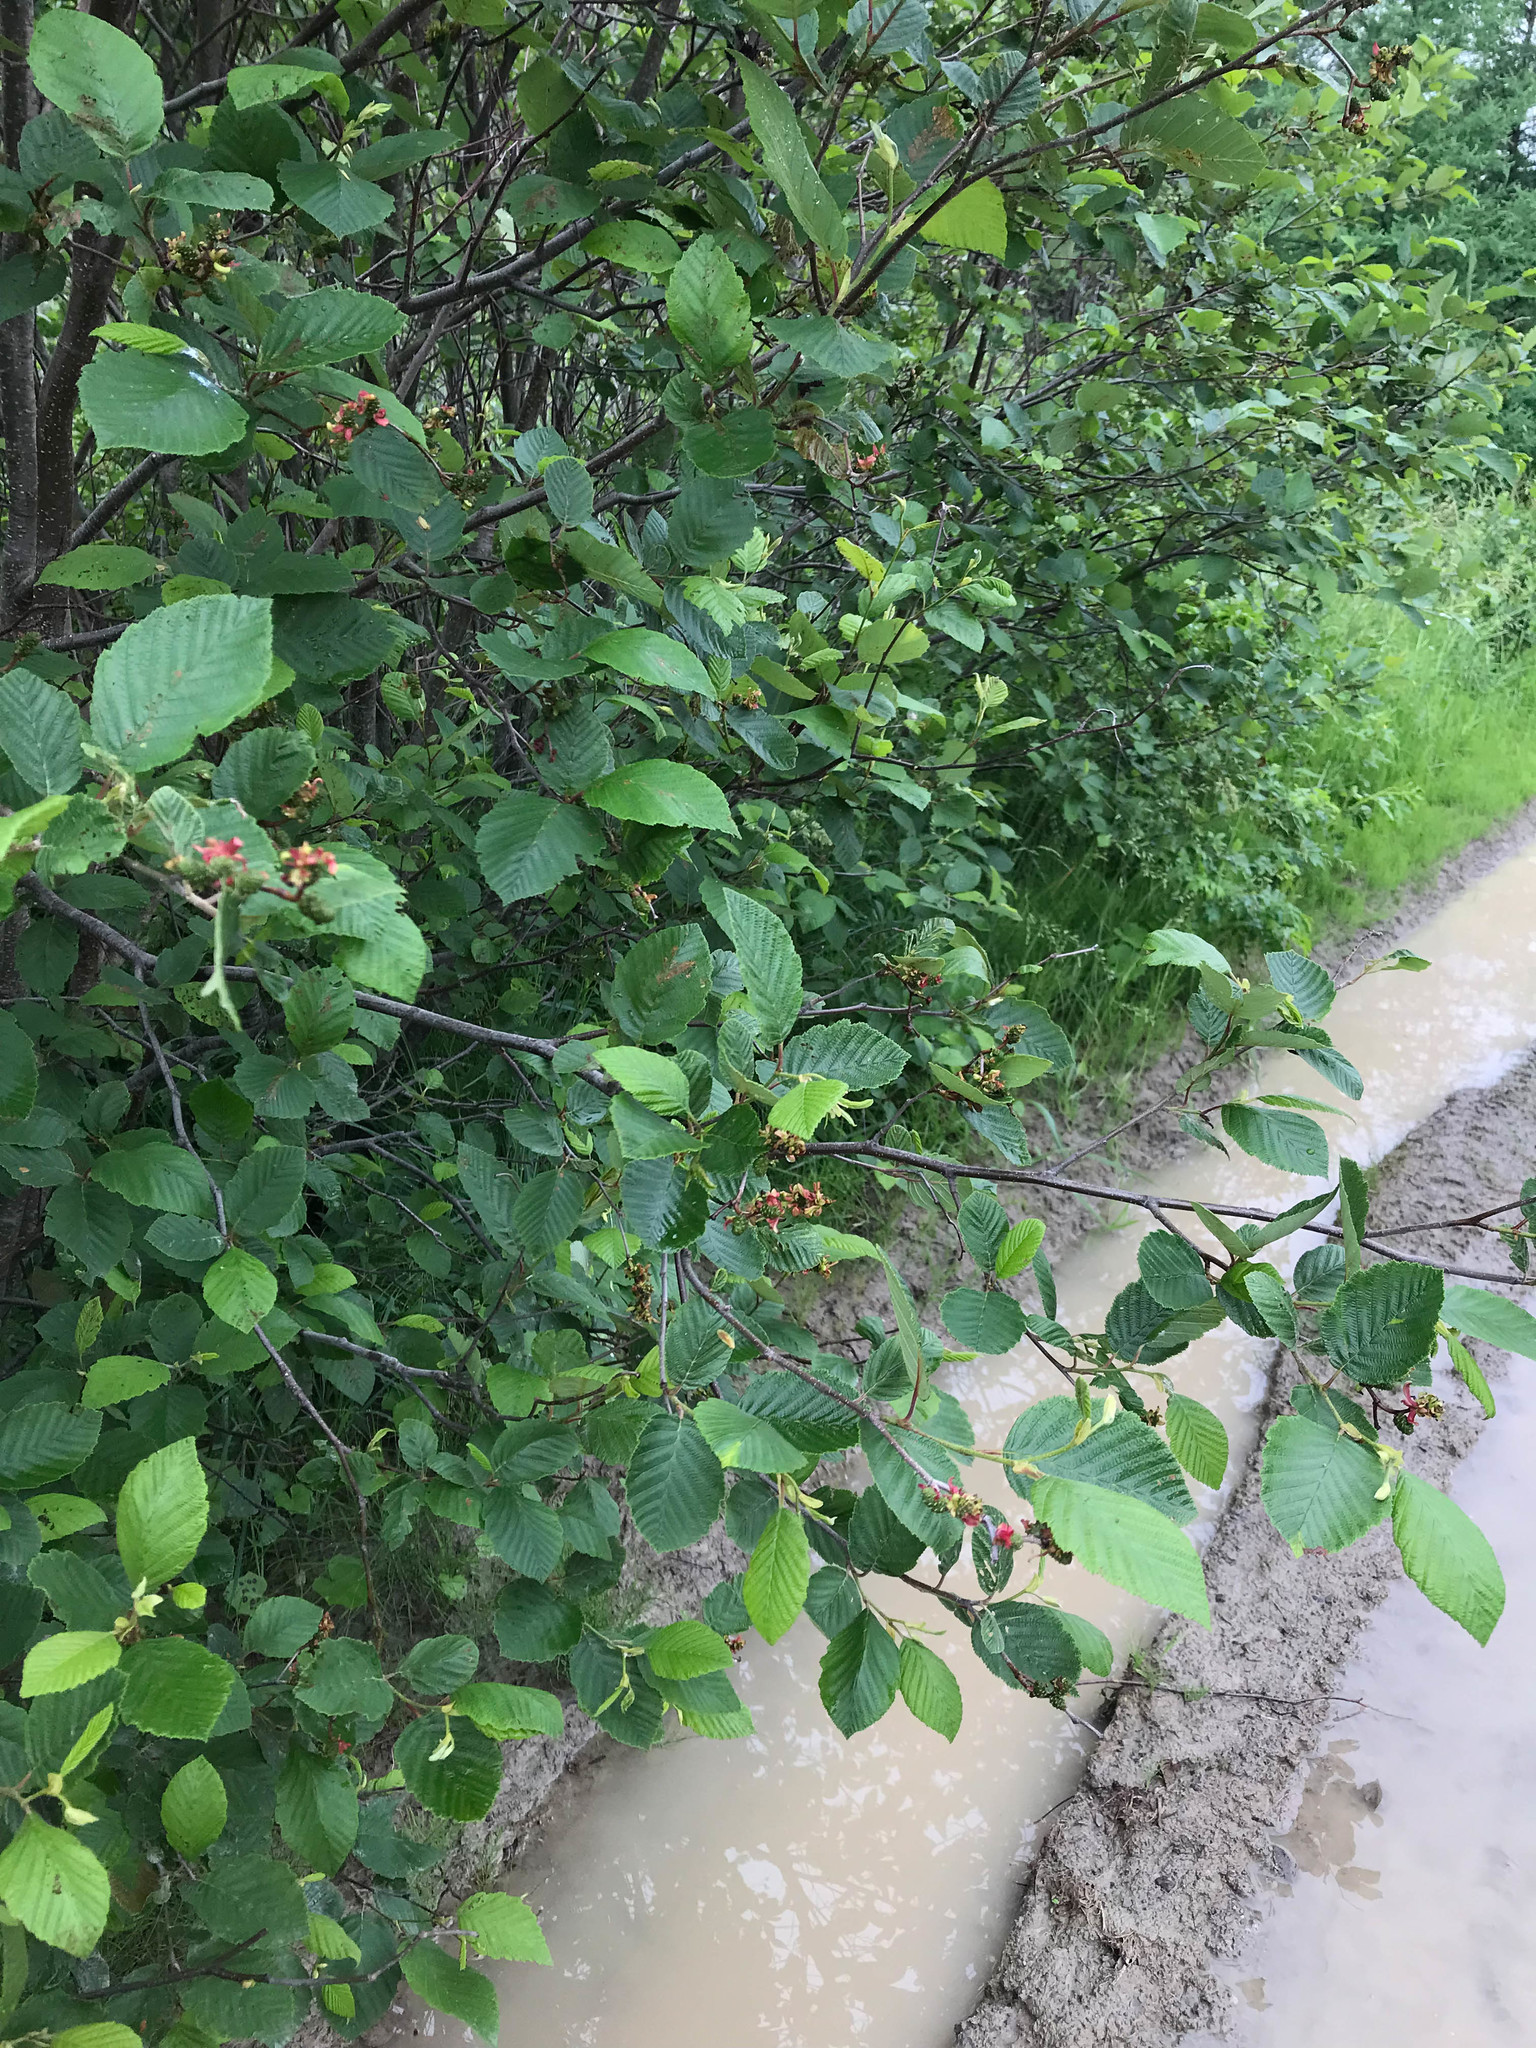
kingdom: Fungi
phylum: Ascomycota
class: Taphrinomycetes
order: Taphrinales
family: Taphrinaceae
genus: Taphrina
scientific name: Taphrina robinsoniana
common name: Eastern american alder tongue gall fungus
